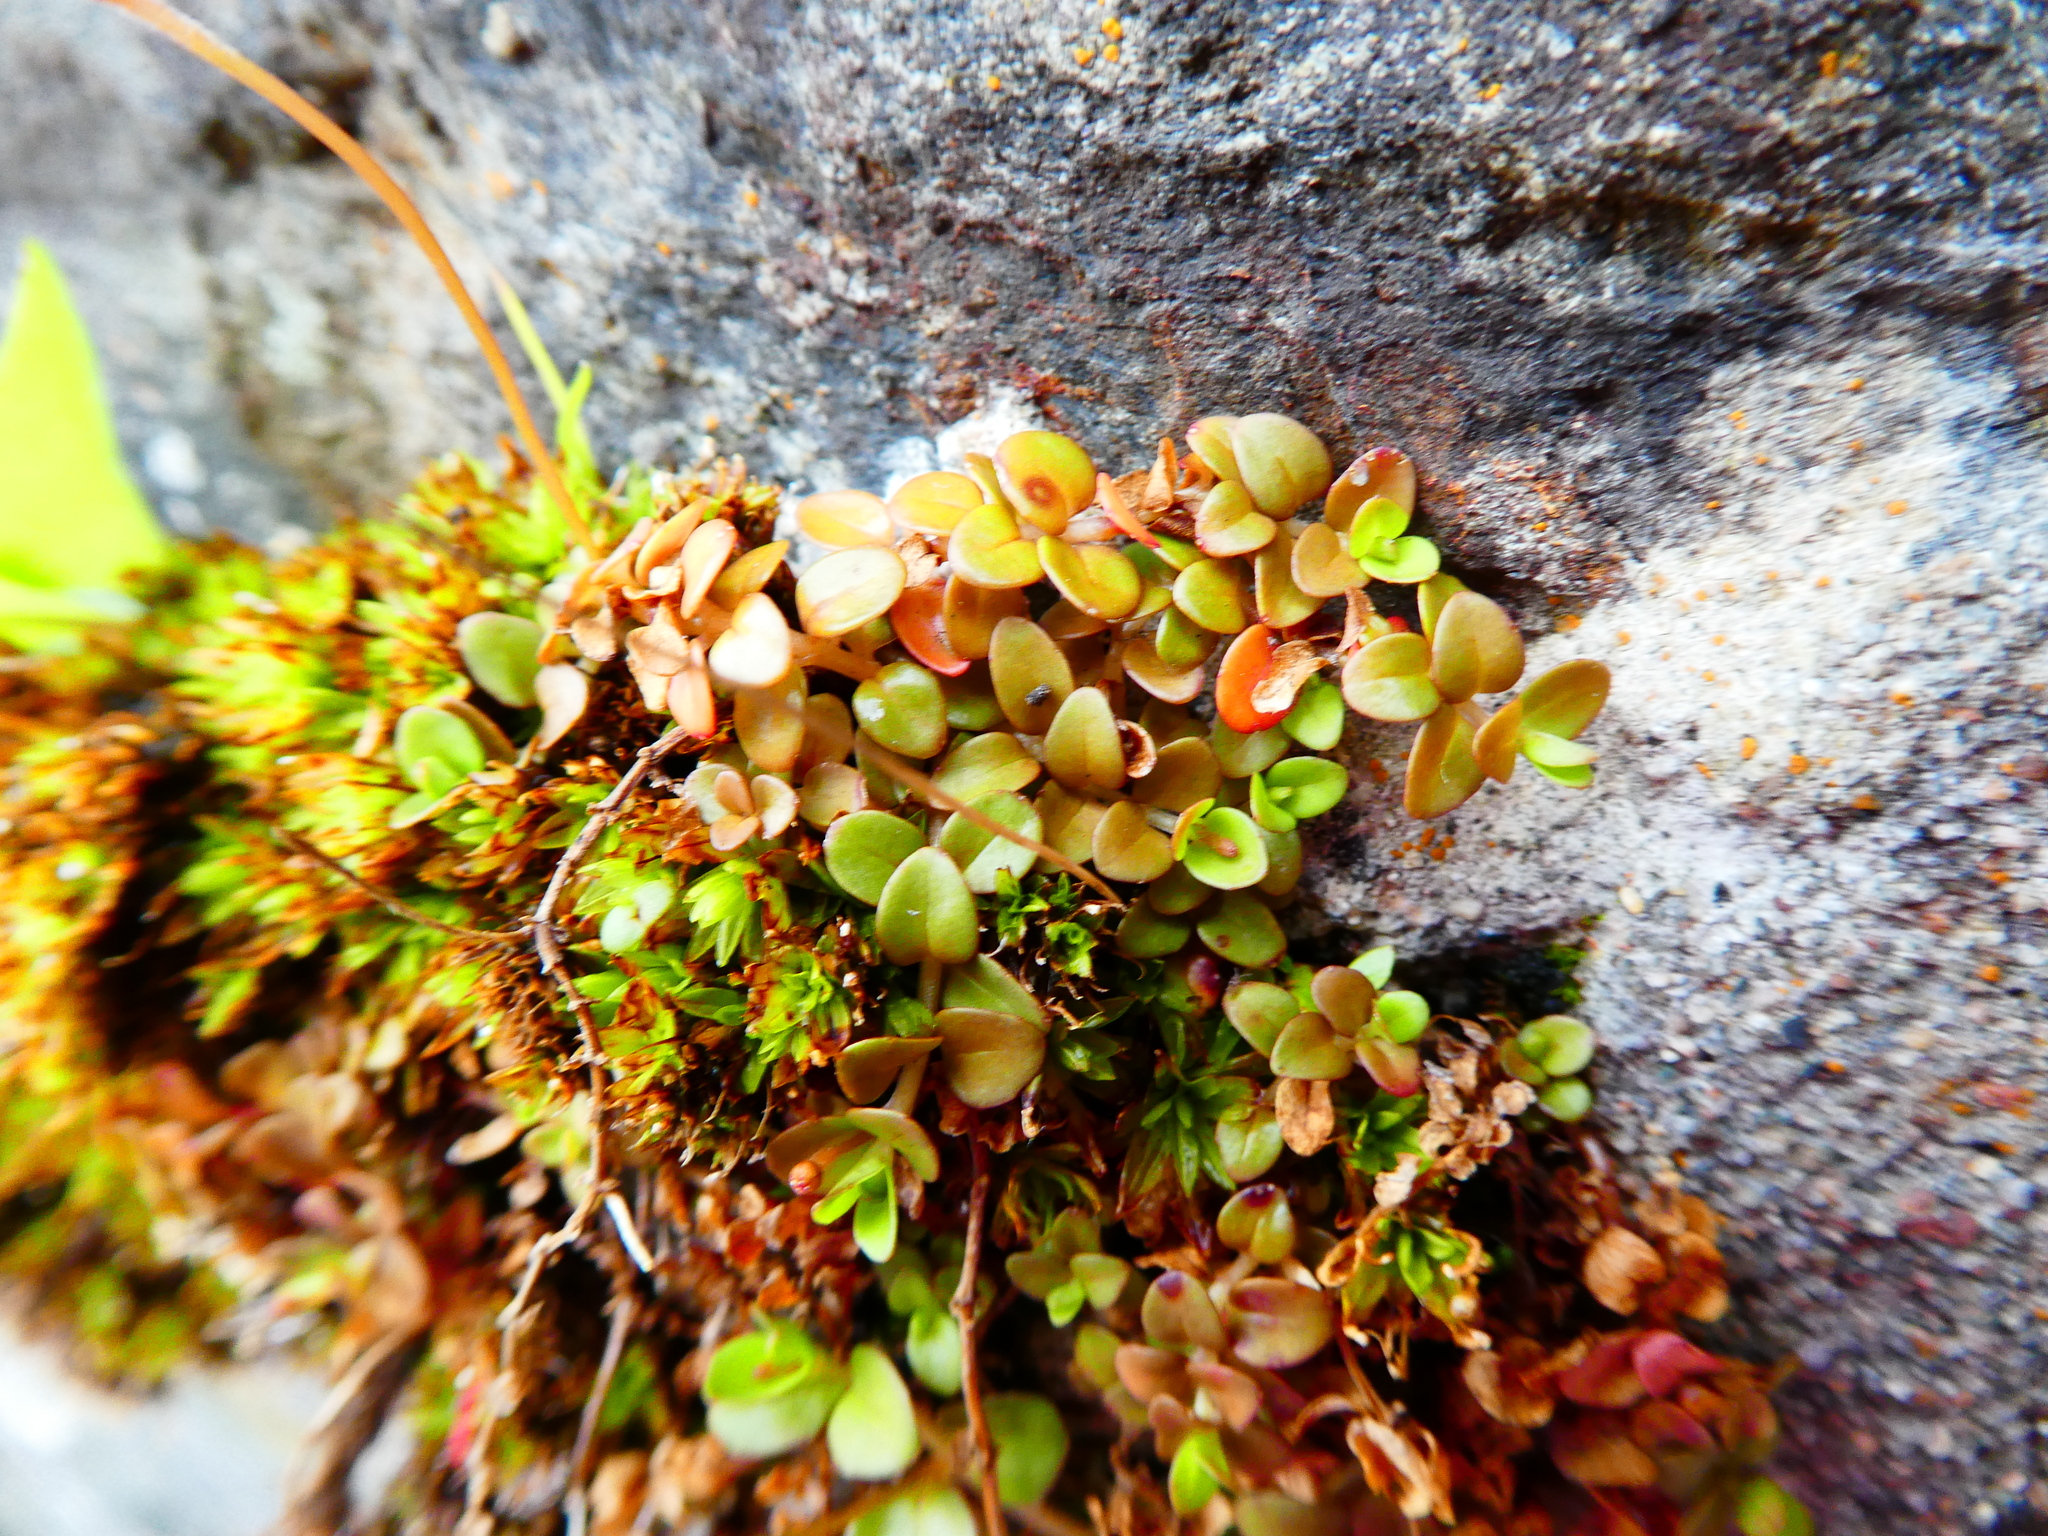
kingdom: Plantae
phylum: Tracheophyta
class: Magnoliopsida
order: Myrtales
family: Onagraceae
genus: Epilobium
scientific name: Epilobium brunnescens
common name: New zealand willowherb
